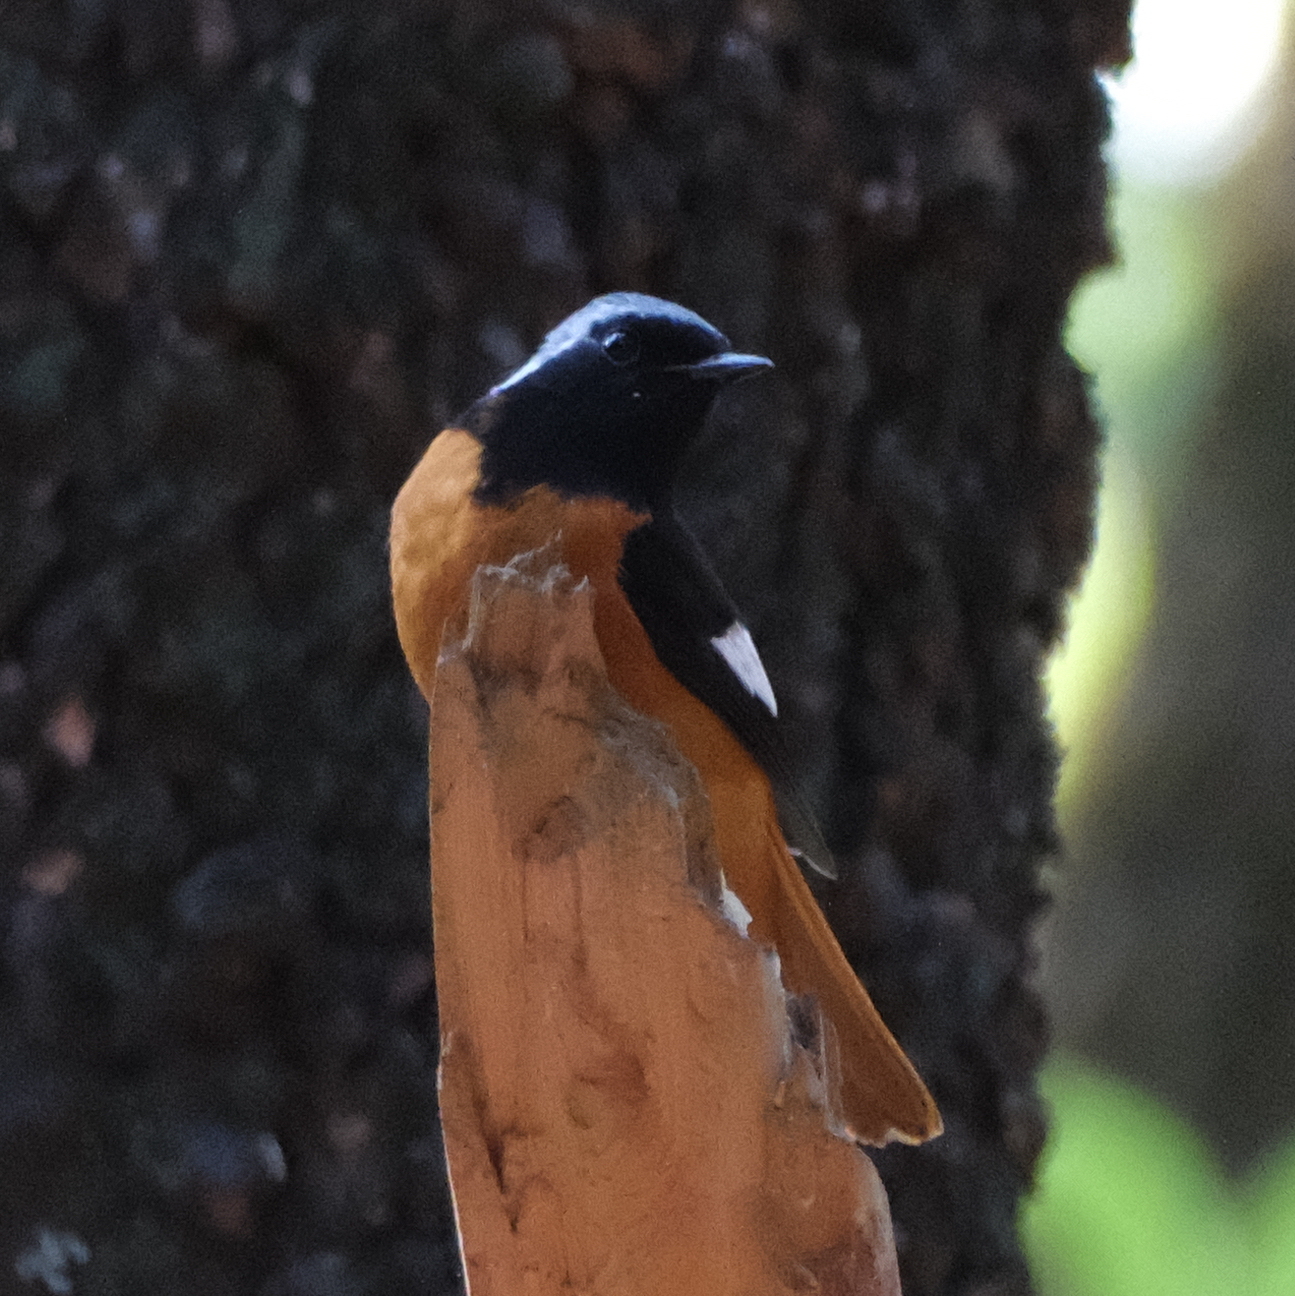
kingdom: Animalia
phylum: Chordata
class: Aves
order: Passeriformes
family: Muscicapidae
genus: Phoenicurus
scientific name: Phoenicurus auroreus
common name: Daurian redstart
